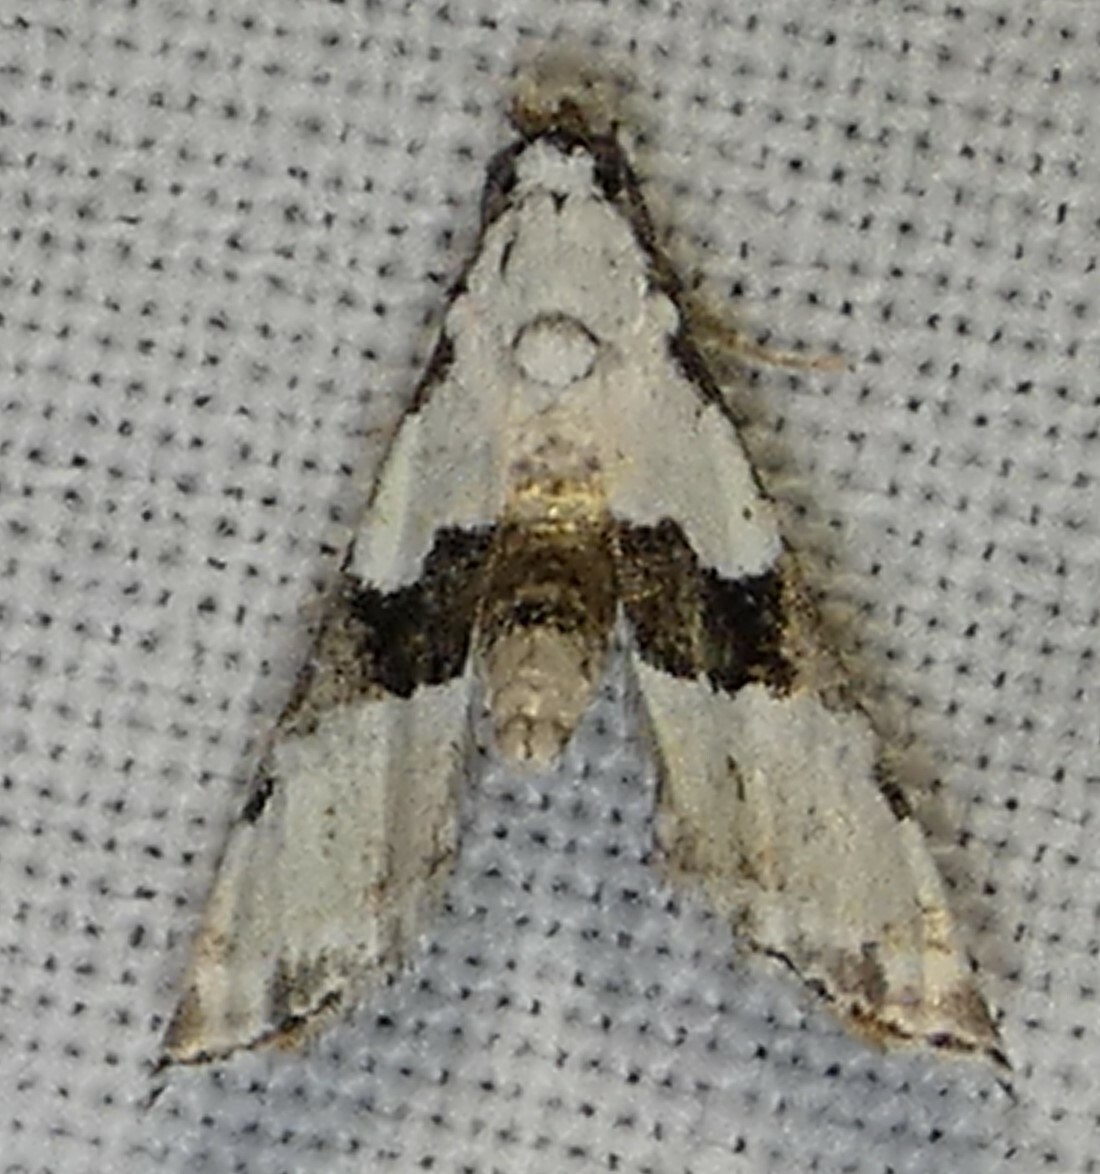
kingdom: Animalia
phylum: Arthropoda
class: Insecta
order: Lepidoptera
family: Noctuidae
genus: Nigetia
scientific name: Nigetia formosalis
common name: Thin-winged owlet
